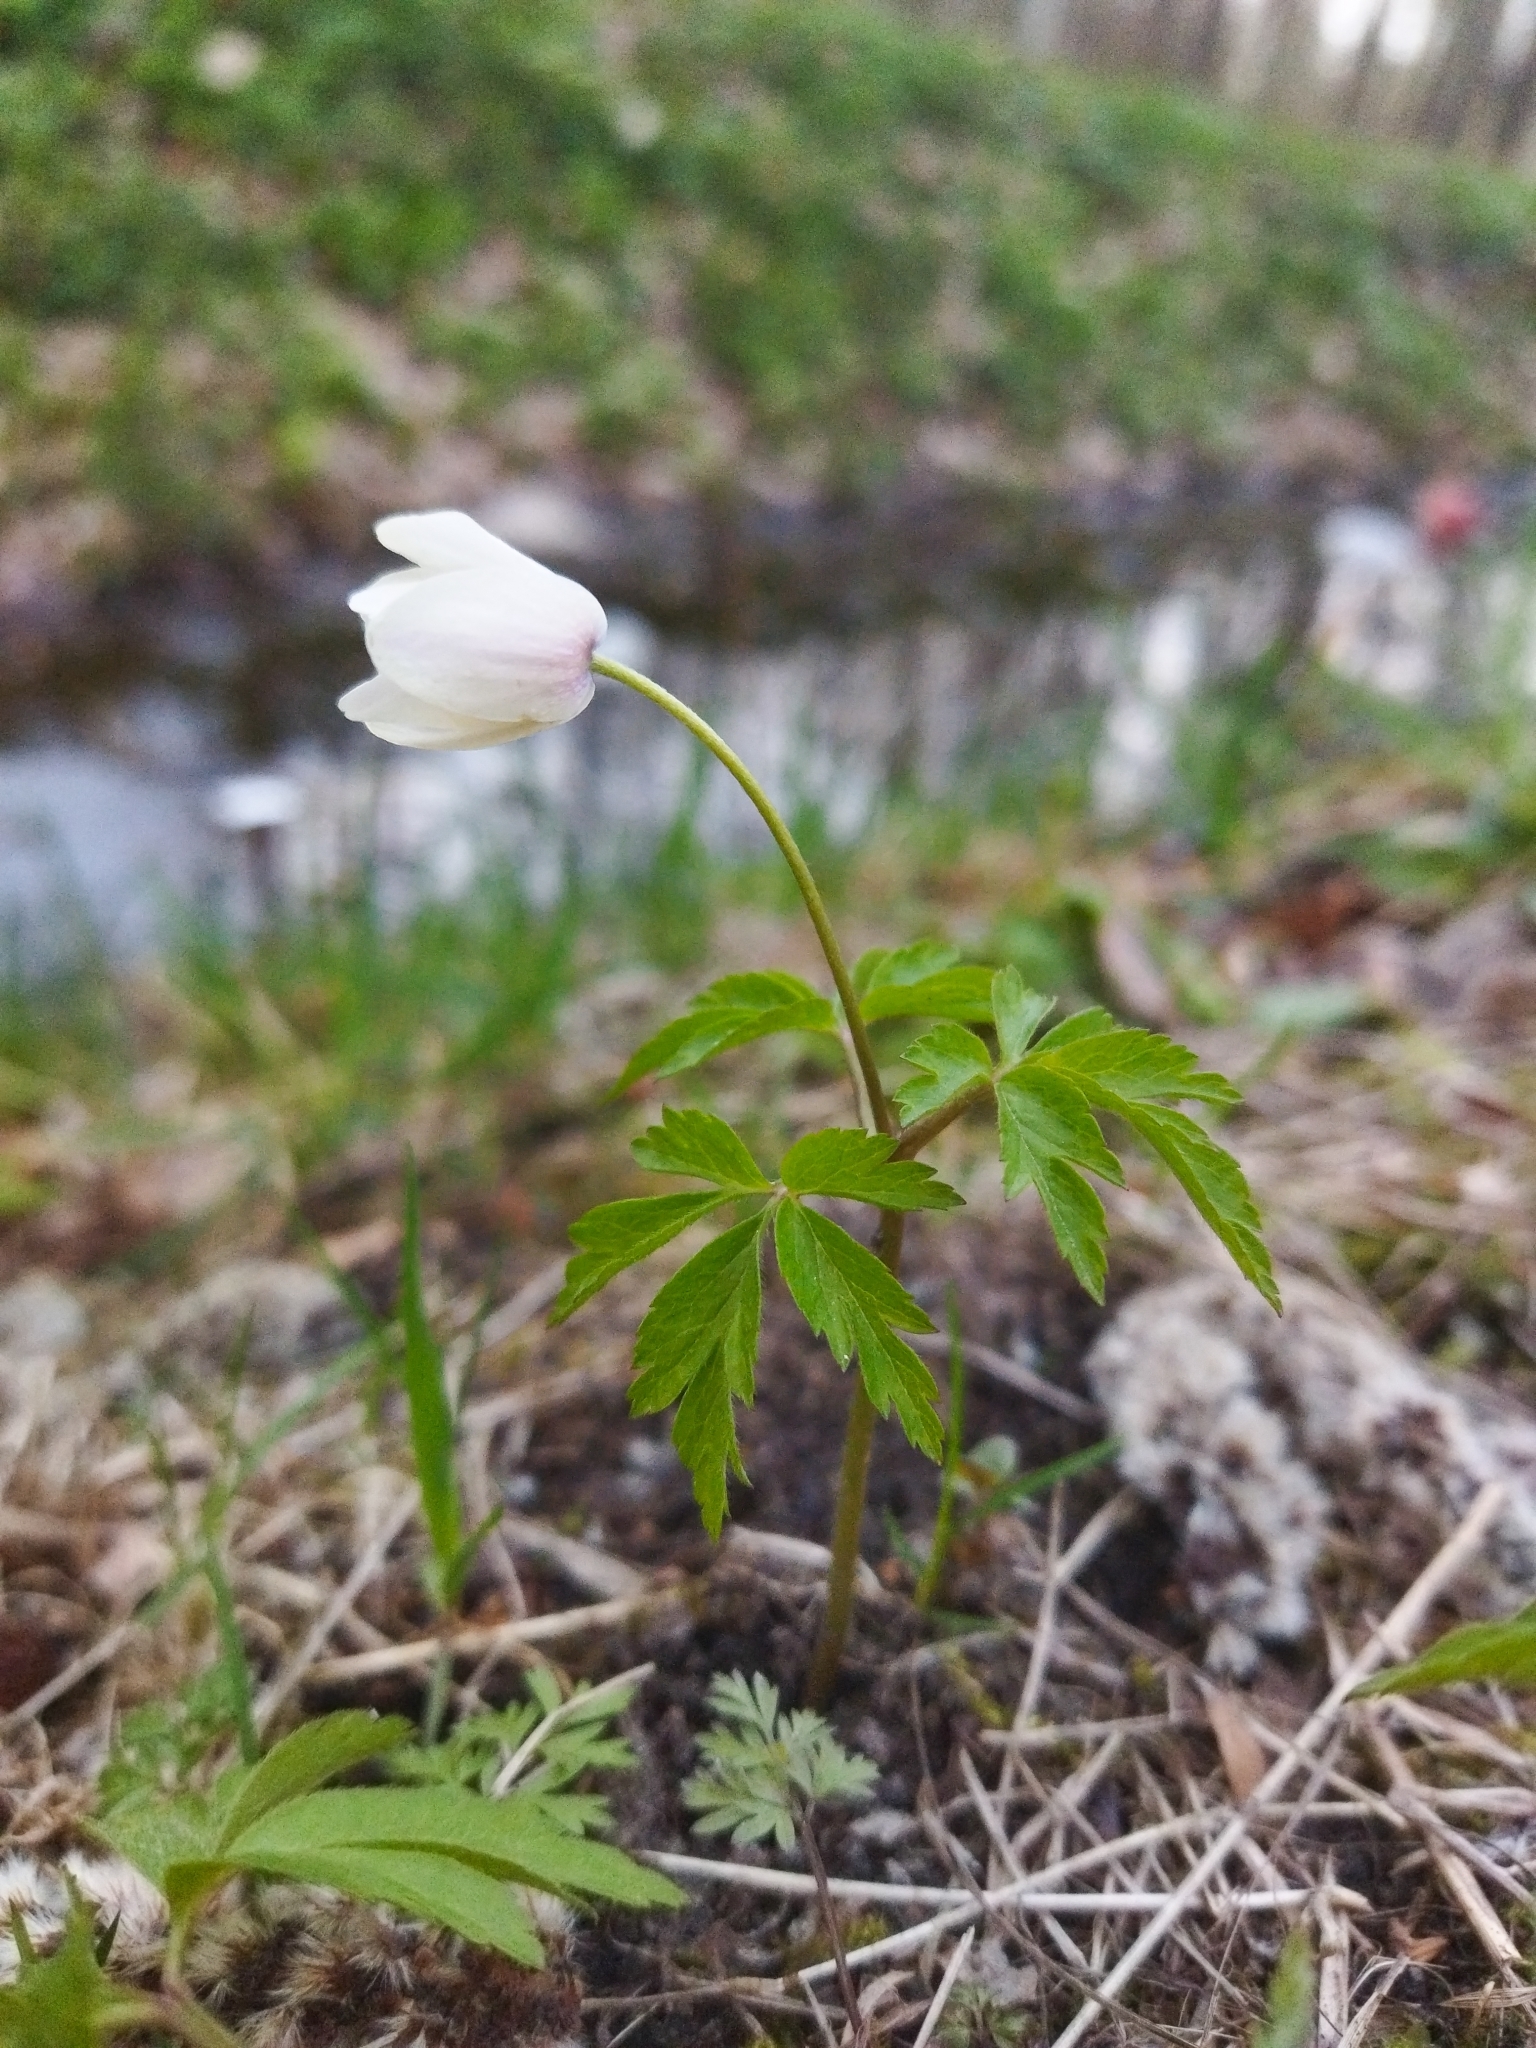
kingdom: Plantae
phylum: Tracheophyta
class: Magnoliopsida
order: Ranunculales
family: Ranunculaceae
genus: Anemone
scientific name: Anemone nemorosa
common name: Wood anemone
